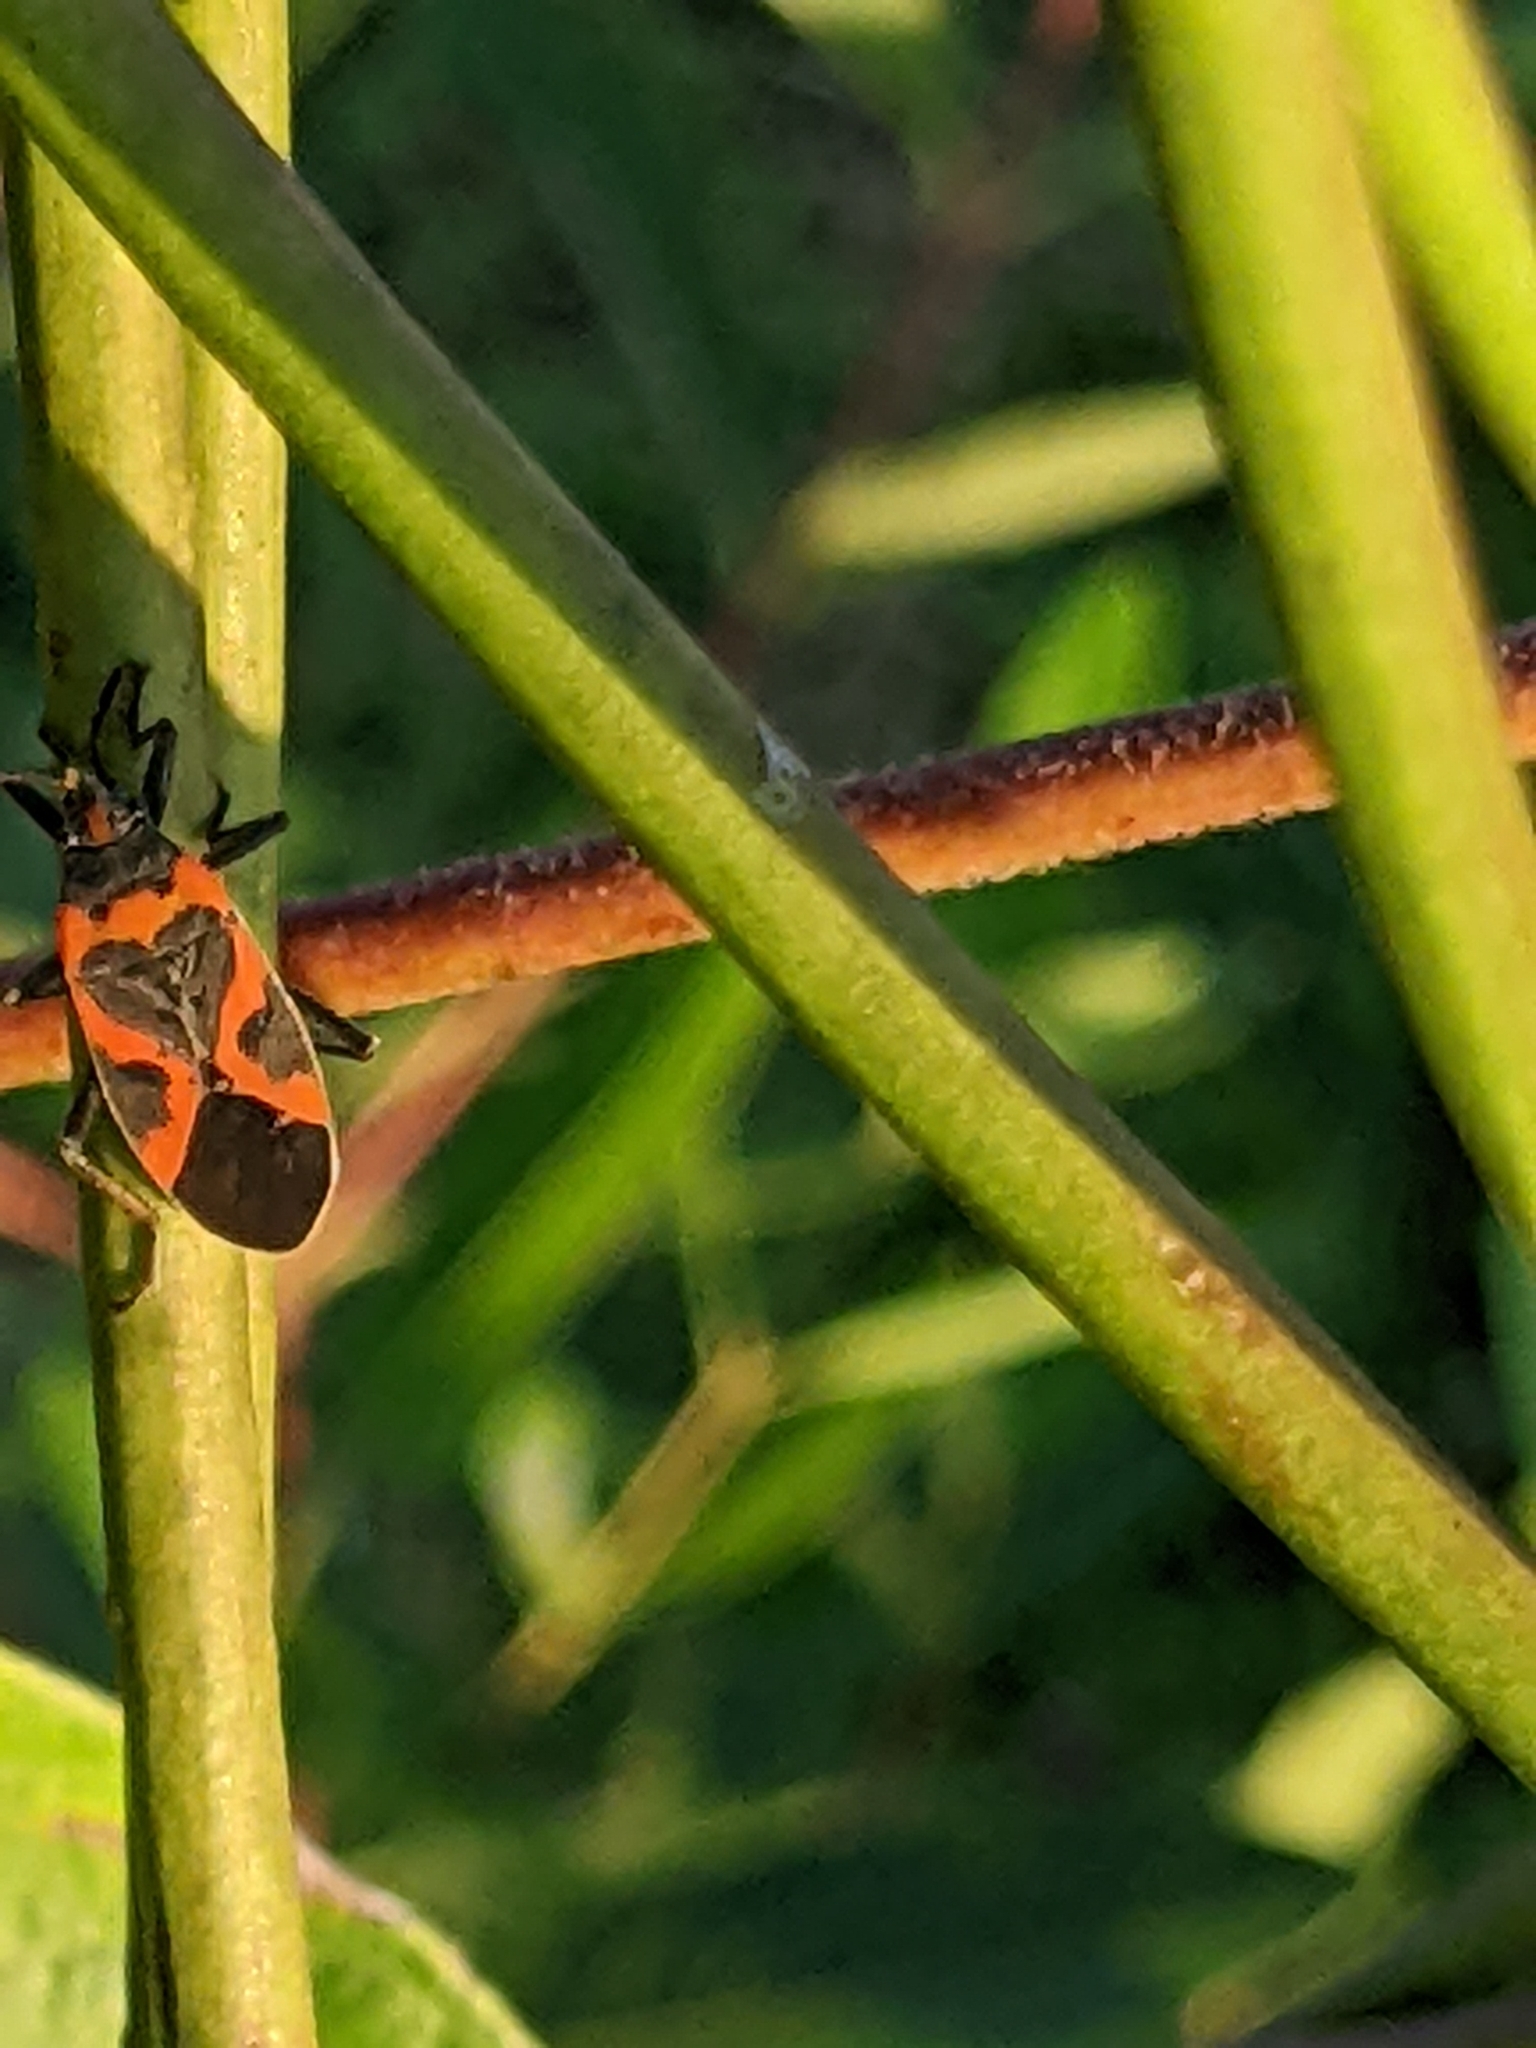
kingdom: Animalia
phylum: Arthropoda
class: Insecta
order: Hemiptera
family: Lygaeidae
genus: Lygaeus
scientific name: Lygaeus kalmii
